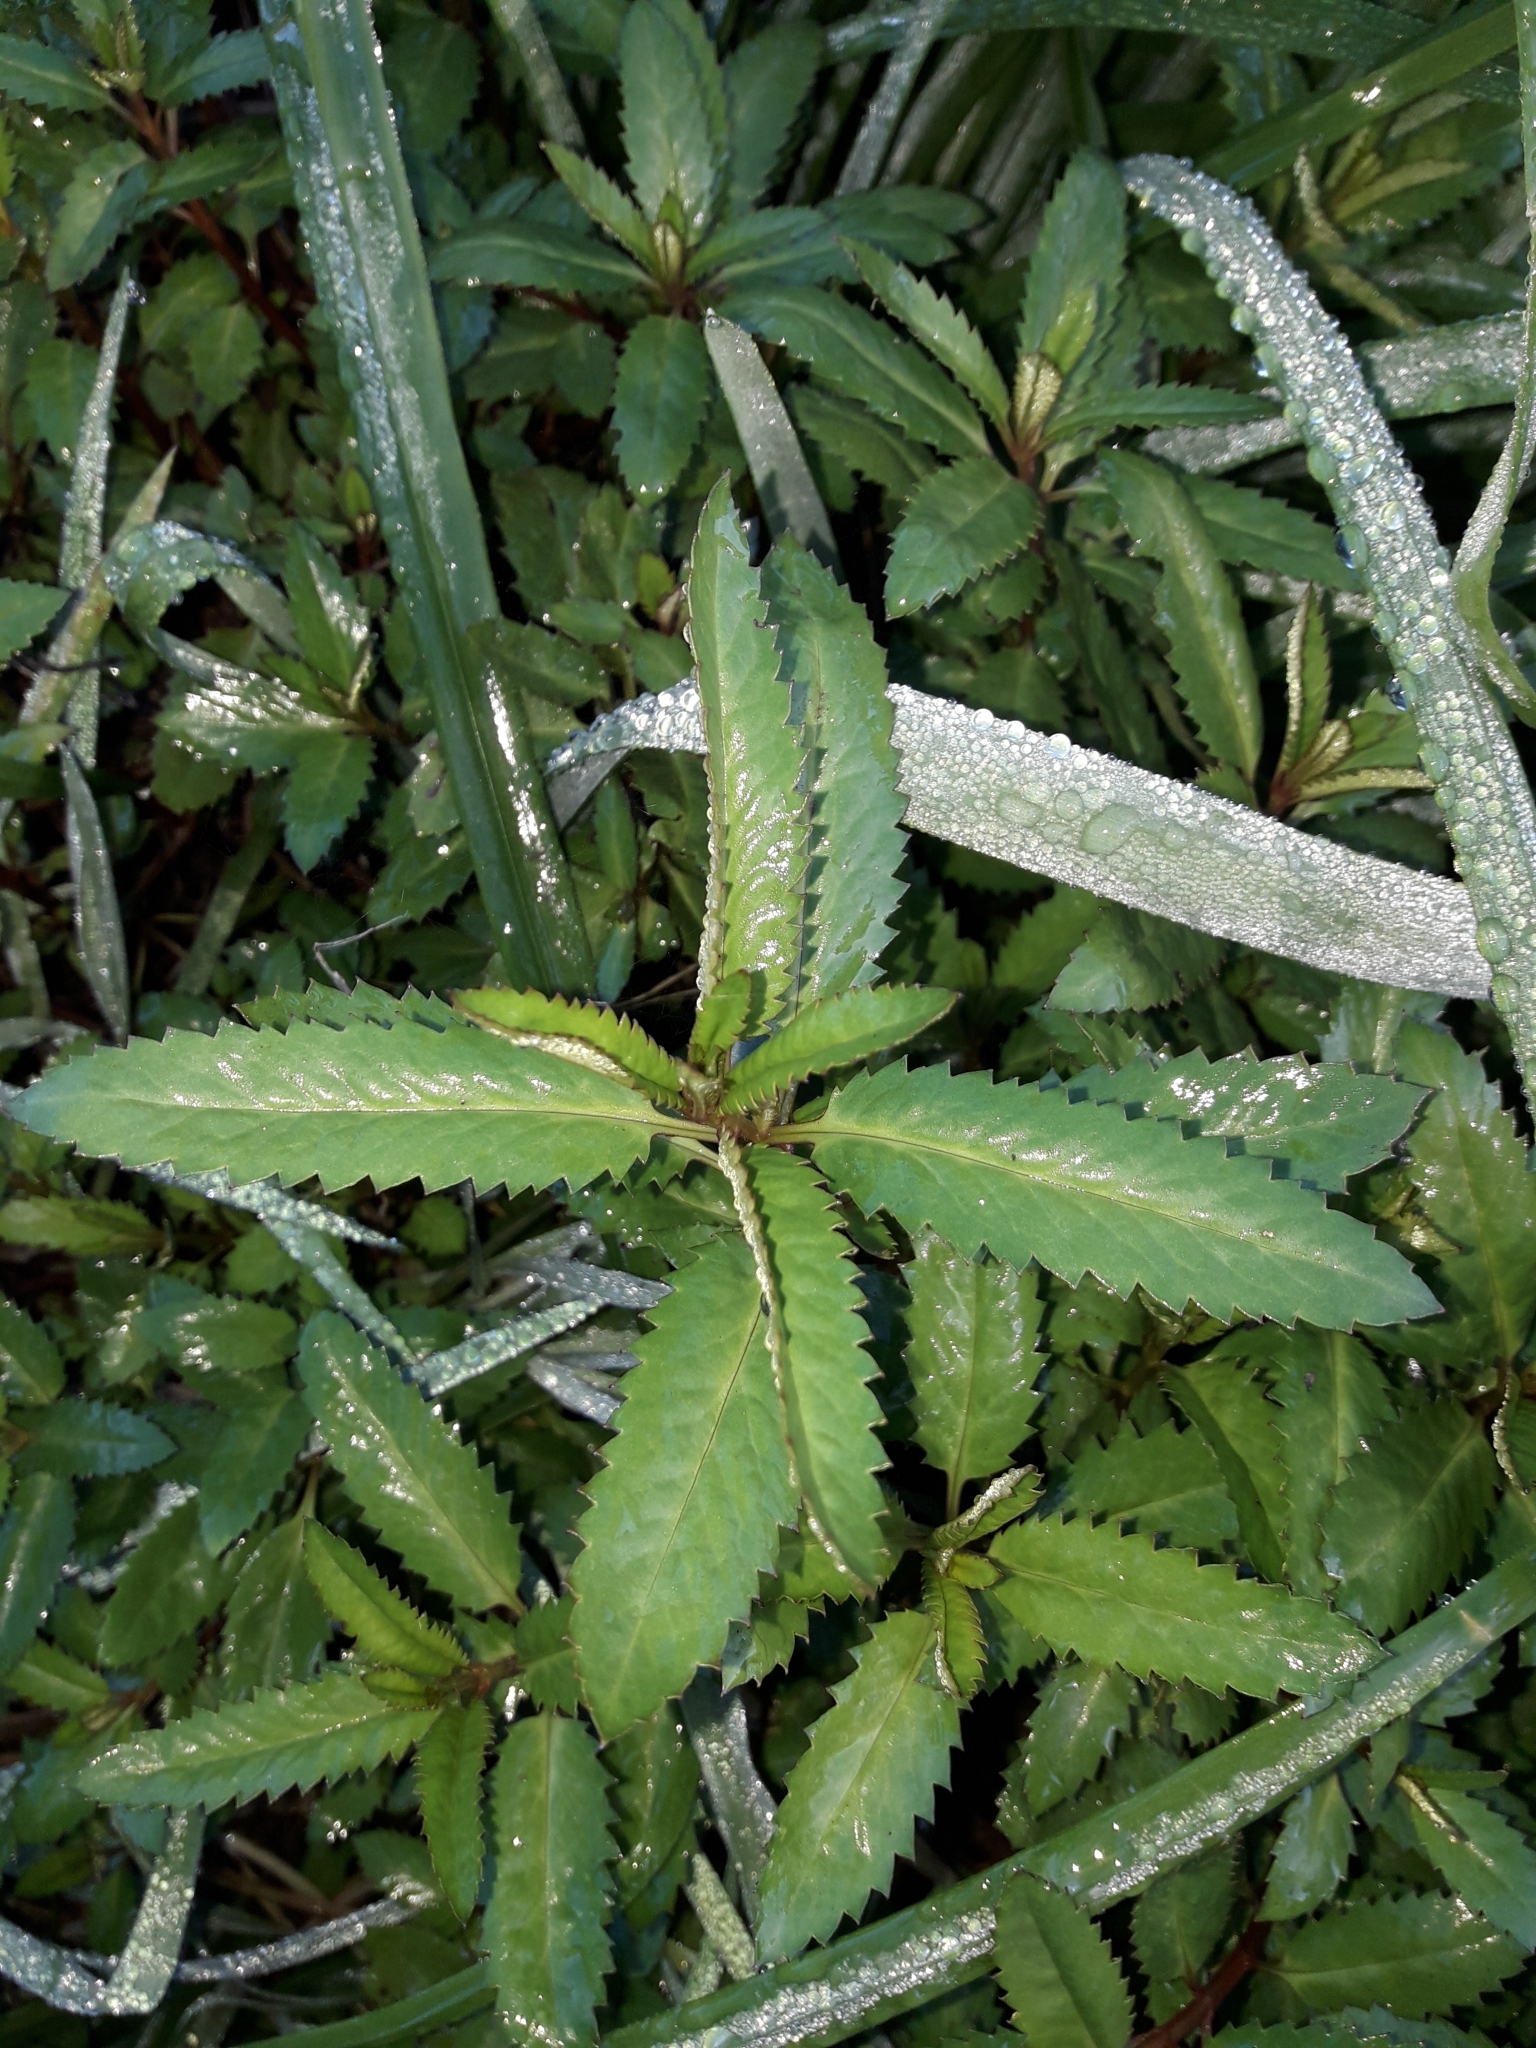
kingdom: Plantae
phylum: Tracheophyta
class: Magnoliopsida
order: Saxifragales
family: Haloragaceae
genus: Haloragis
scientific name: Haloragis erecta
